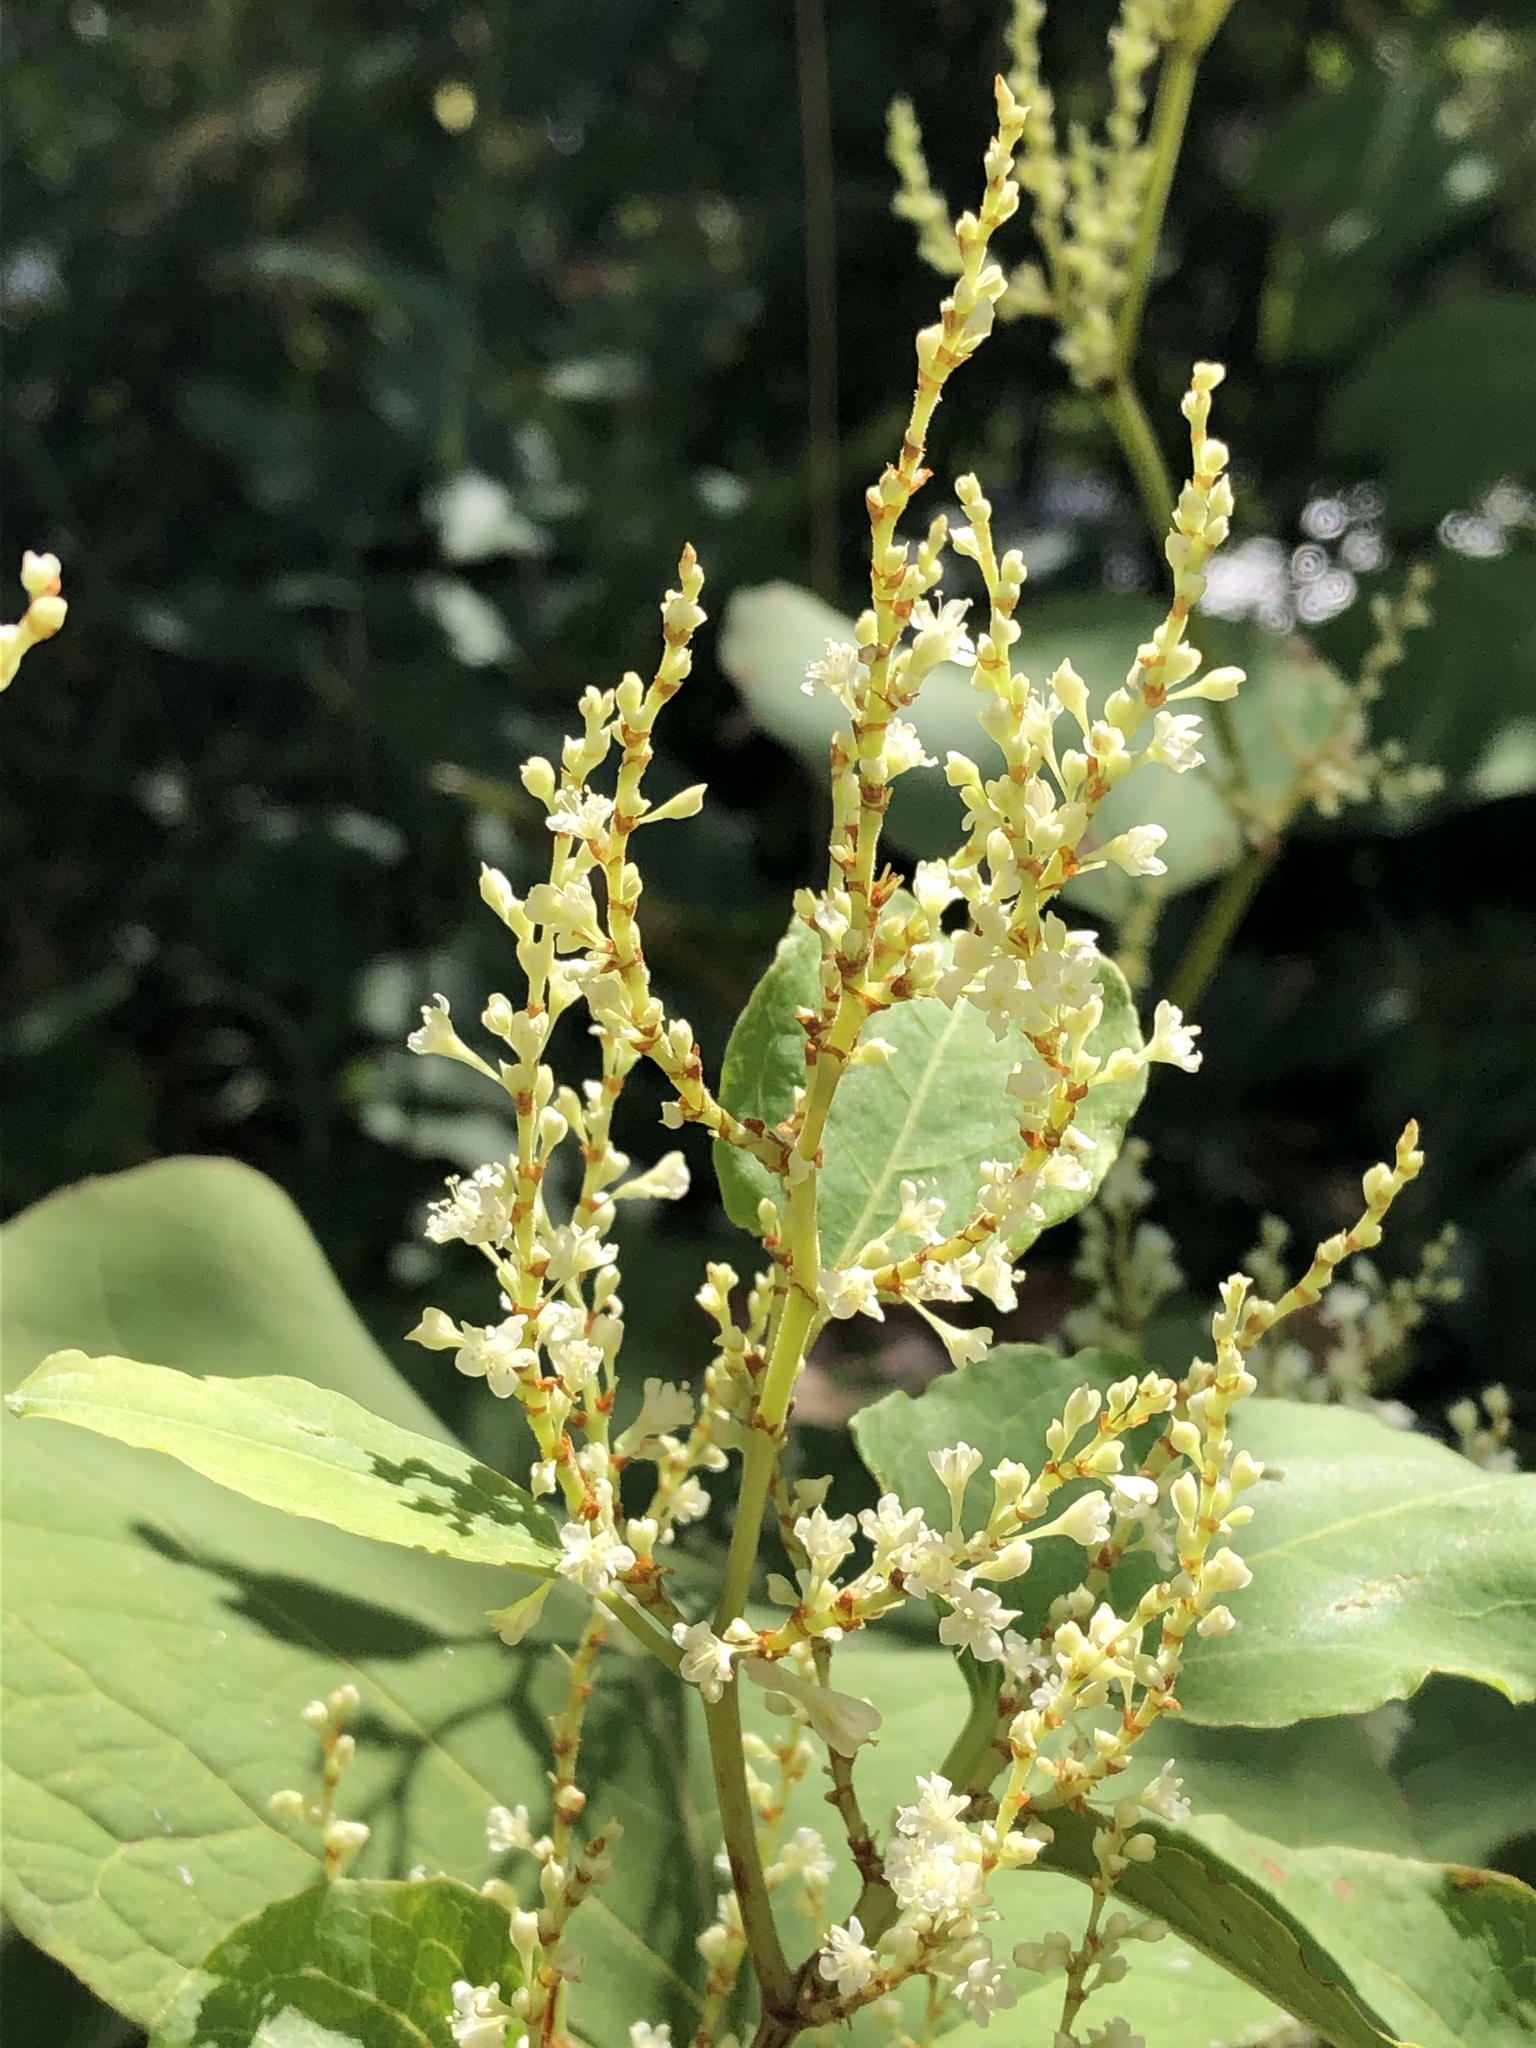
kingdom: Plantae
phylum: Tracheophyta
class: Magnoliopsida
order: Caryophyllales
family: Polygonaceae
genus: Reynoutria
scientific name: Reynoutria japonica
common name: Japanese knotweed
